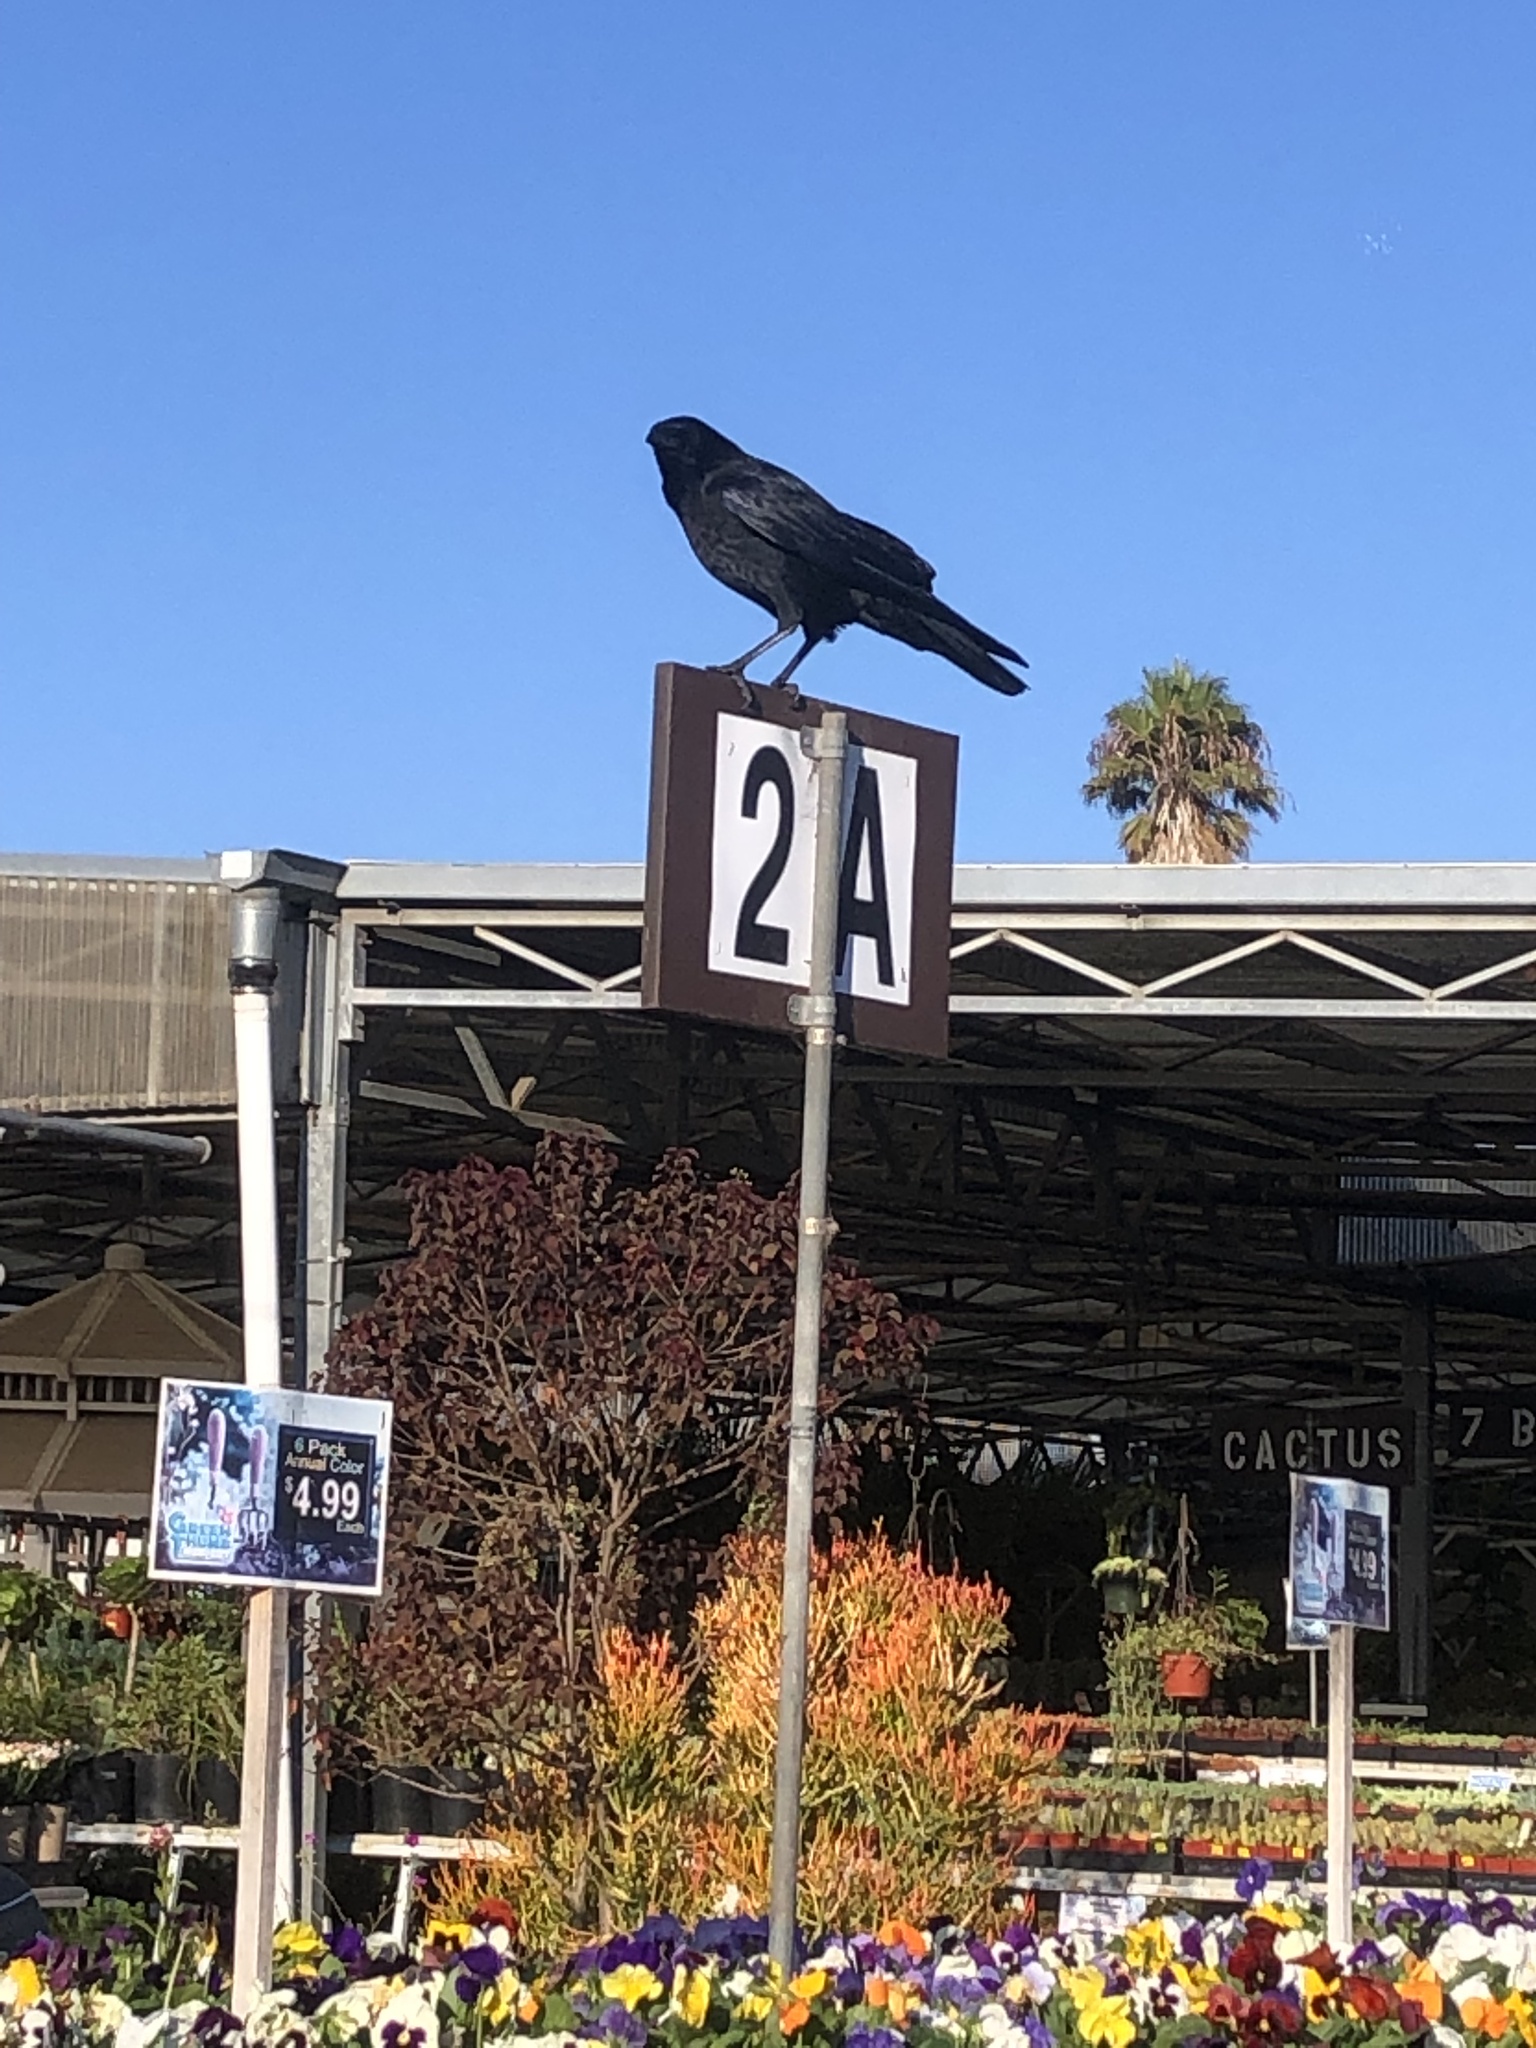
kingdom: Animalia
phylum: Chordata
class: Aves
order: Passeriformes
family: Corvidae
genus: Corvus
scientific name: Corvus brachyrhynchos
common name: American crow
